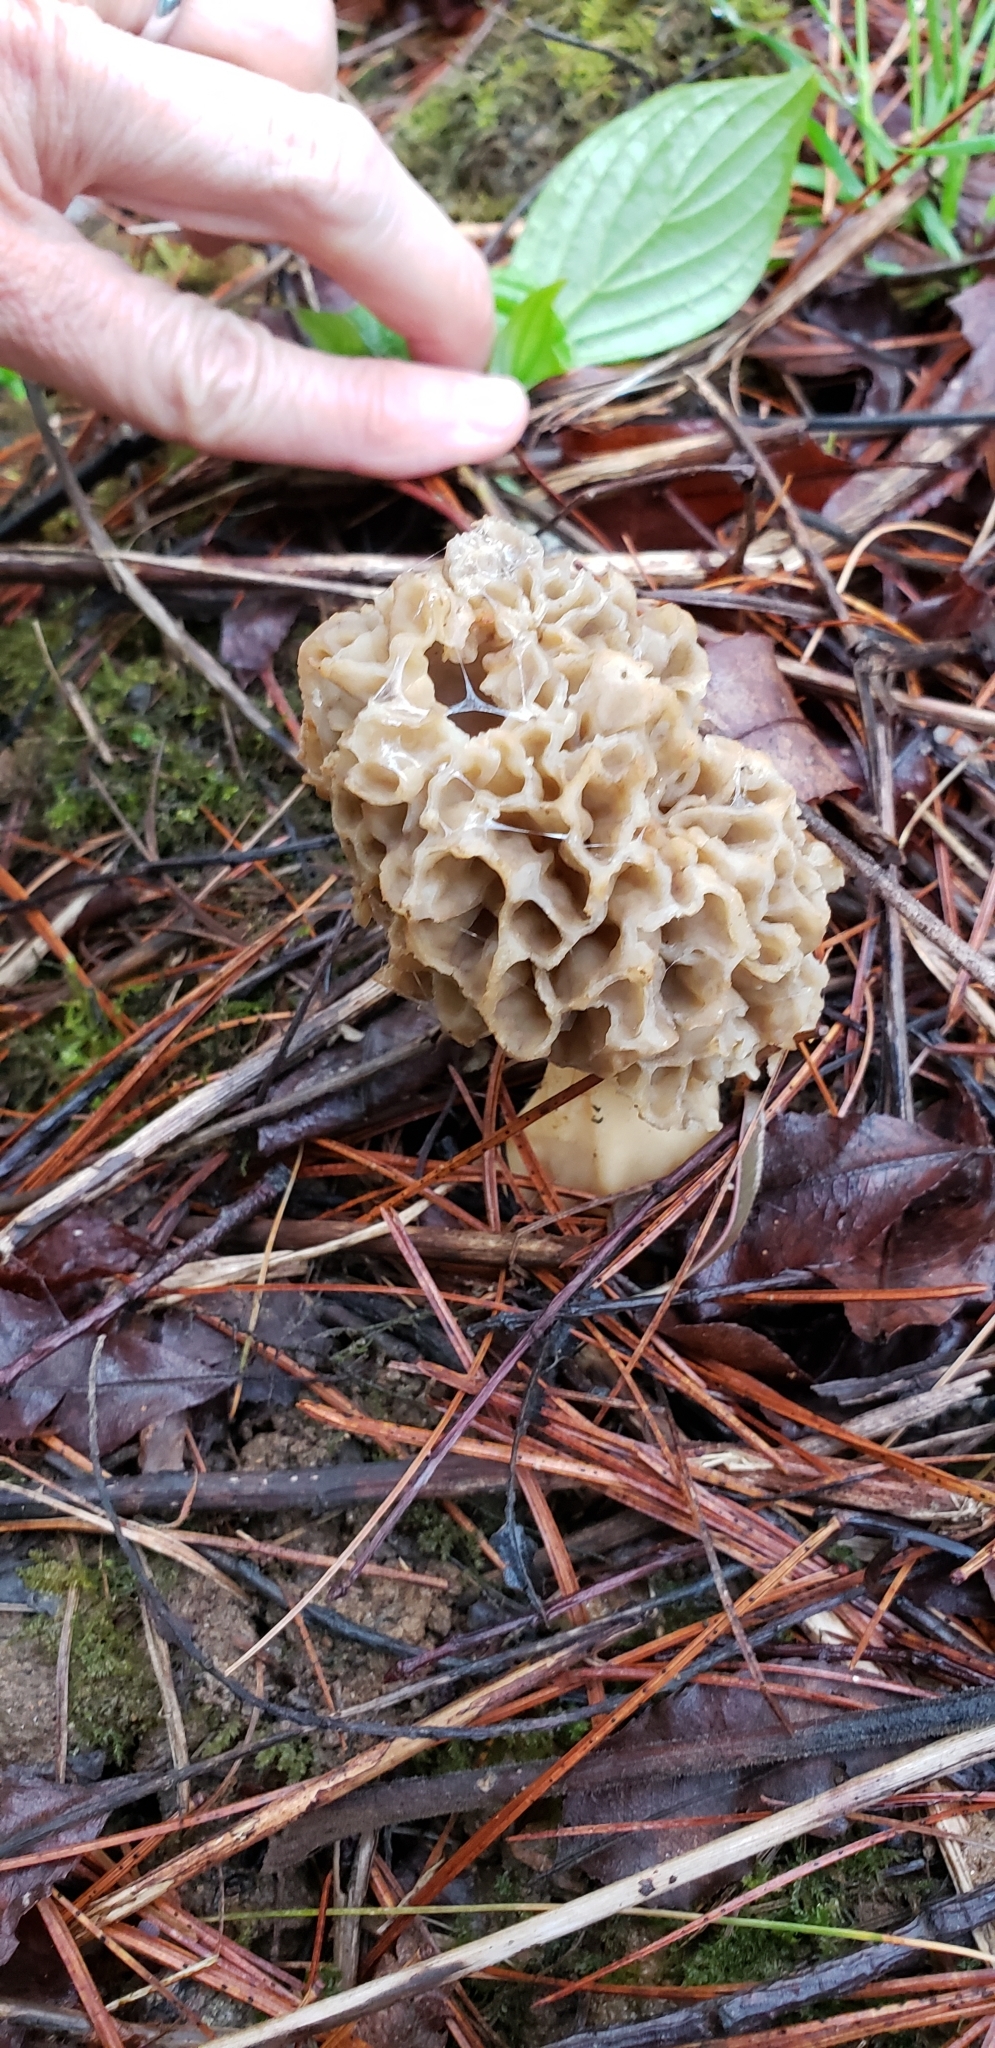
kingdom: Fungi
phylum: Ascomycota
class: Pezizomycetes
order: Pezizales
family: Morchellaceae
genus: Morchella
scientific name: Morchella americana
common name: White morel
